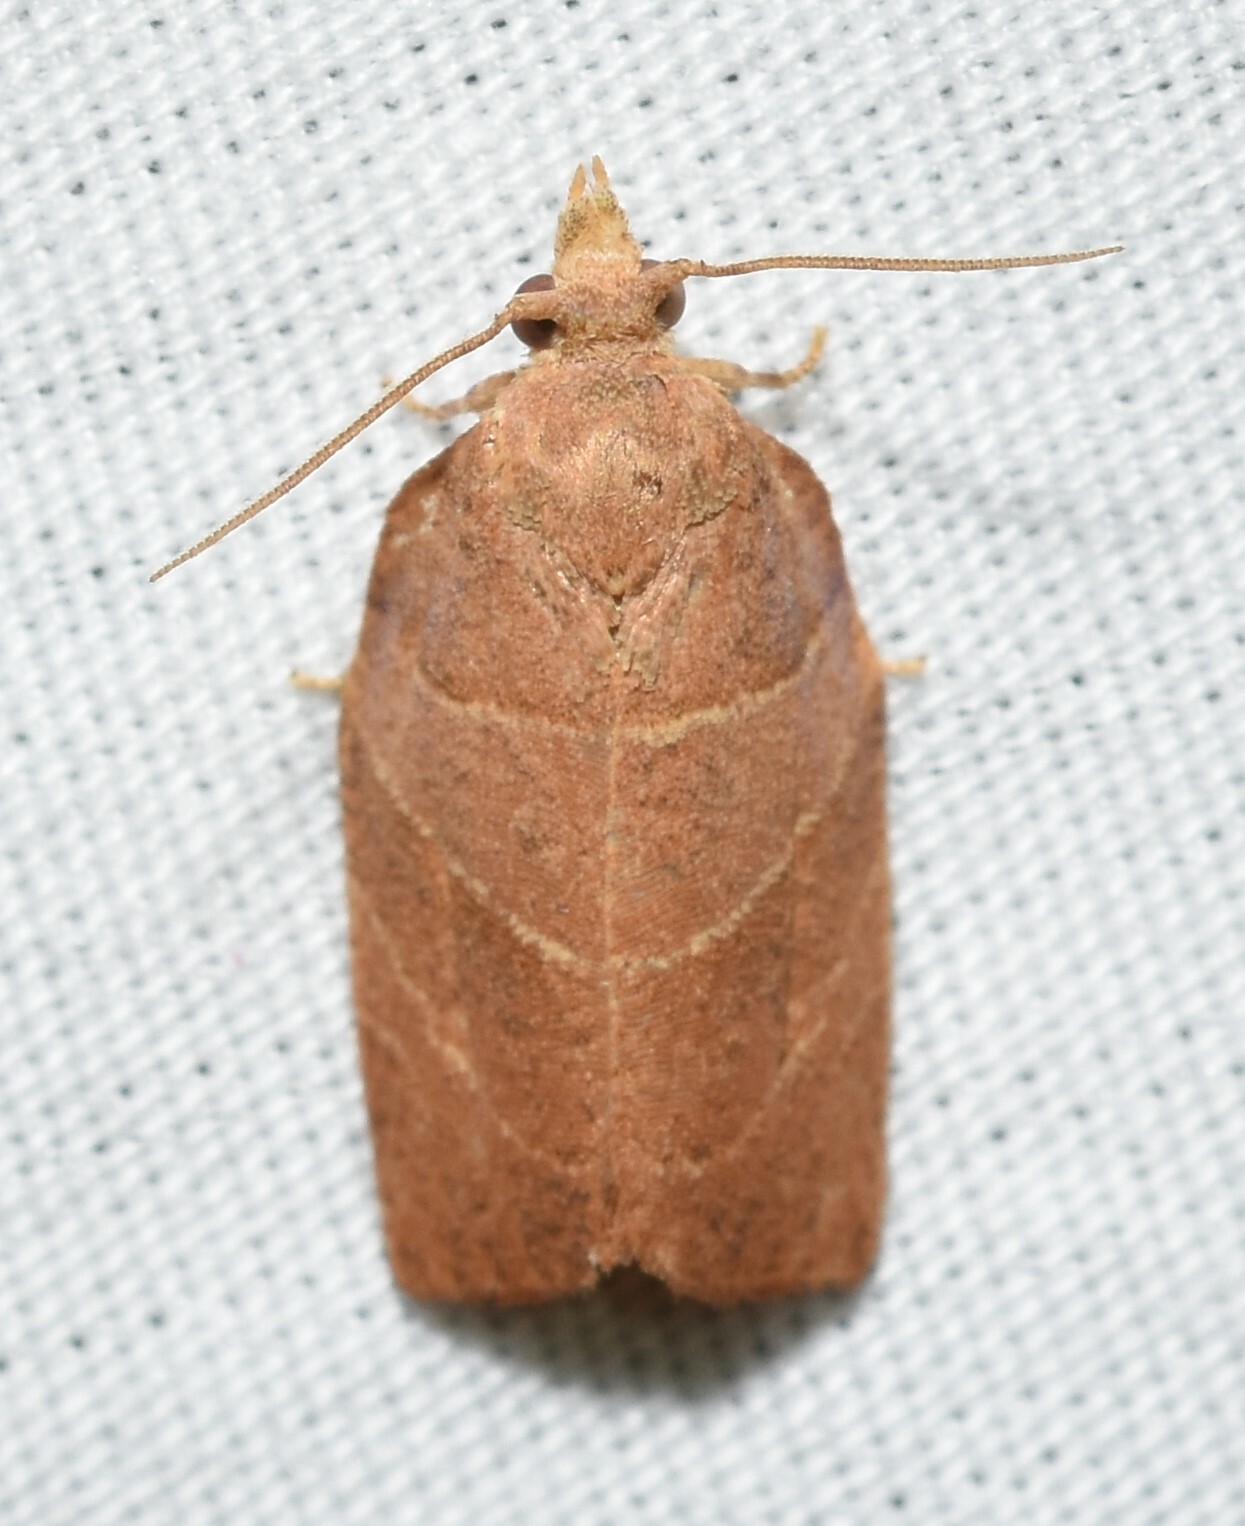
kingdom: Animalia
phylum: Arthropoda
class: Insecta
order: Lepidoptera
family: Tortricidae
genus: Pandemis
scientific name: Pandemis limitata
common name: Three-lined leafroller moth
